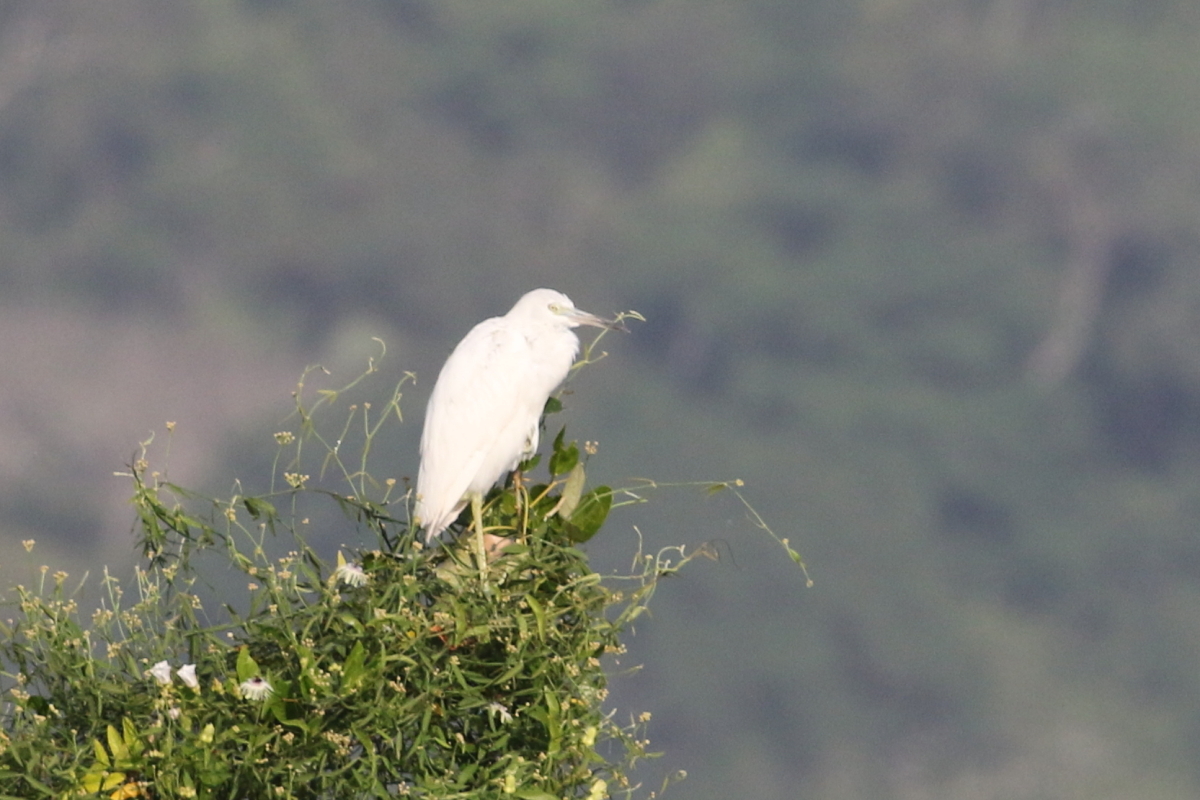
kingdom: Animalia
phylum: Chordata
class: Aves
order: Pelecaniformes
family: Ardeidae
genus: Egretta
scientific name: Egretta caerulea
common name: Little blue heron
